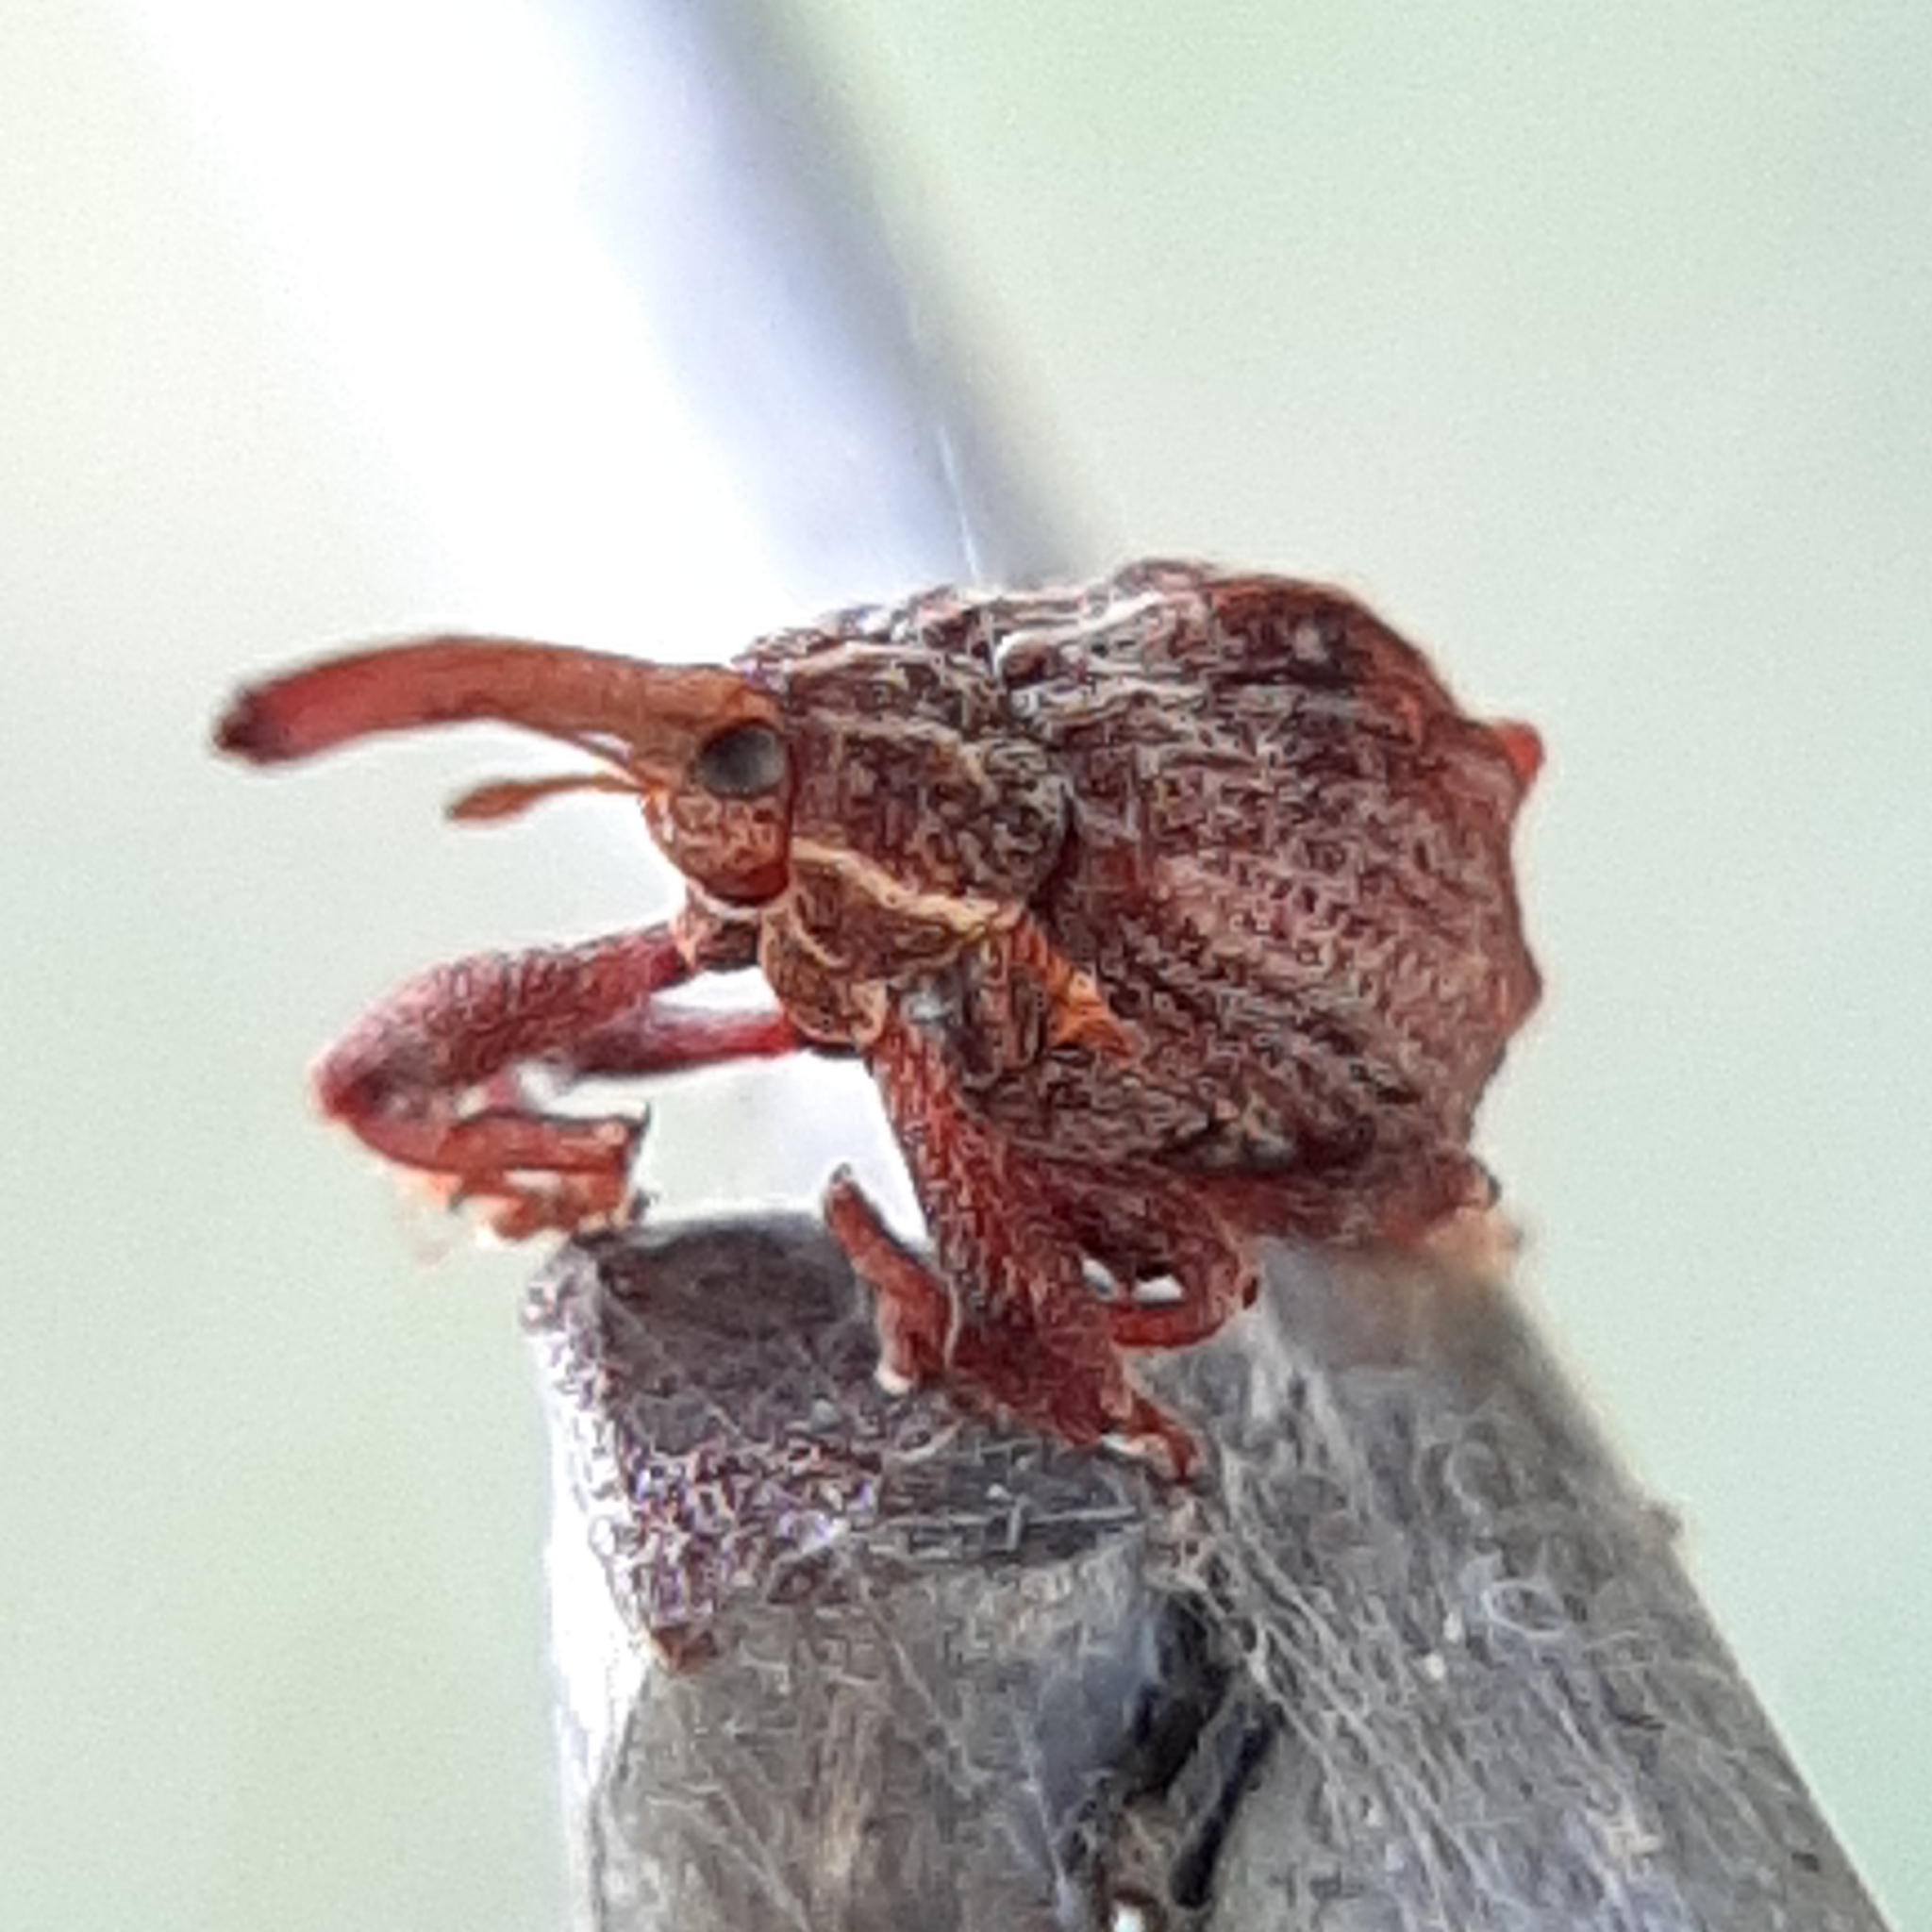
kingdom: Animalia
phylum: Arthropoda
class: Insecta
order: Coleoptera
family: Curculionidae
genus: Anthonomus
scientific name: Anthonomus quadrigibbus
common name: Apple curculio
